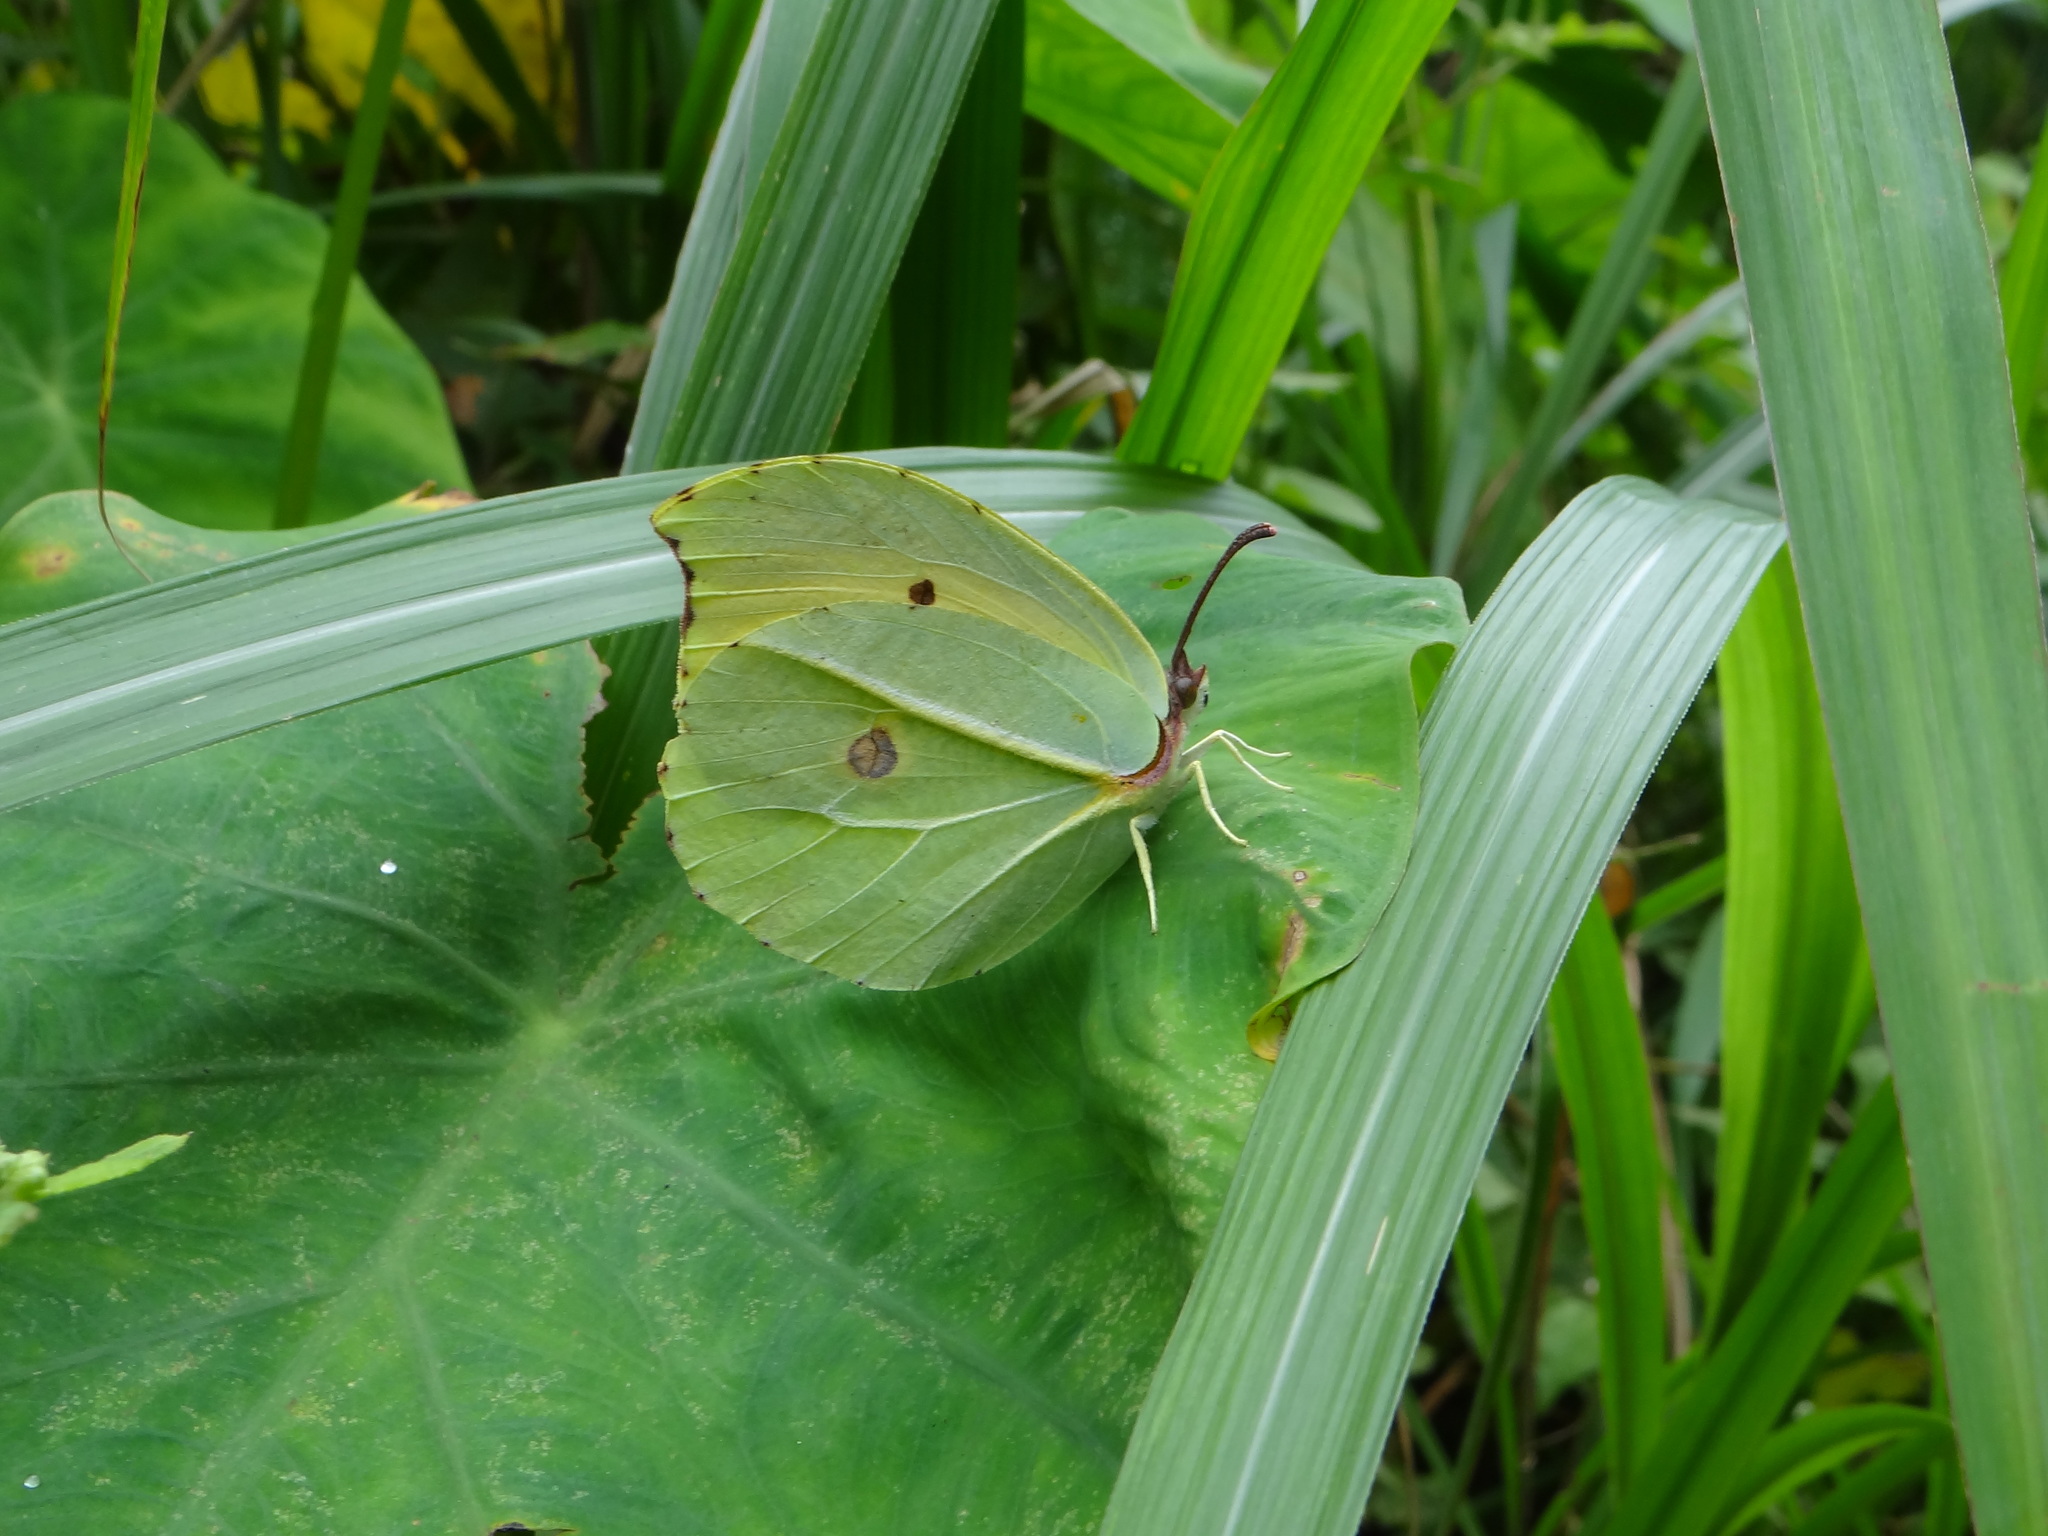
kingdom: Animalia
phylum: Arthropoda
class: Insecta
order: Lepidoptera
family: Pieridae
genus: Gonepteryx
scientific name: Gonepteryx amintha
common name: Orange brimstone
